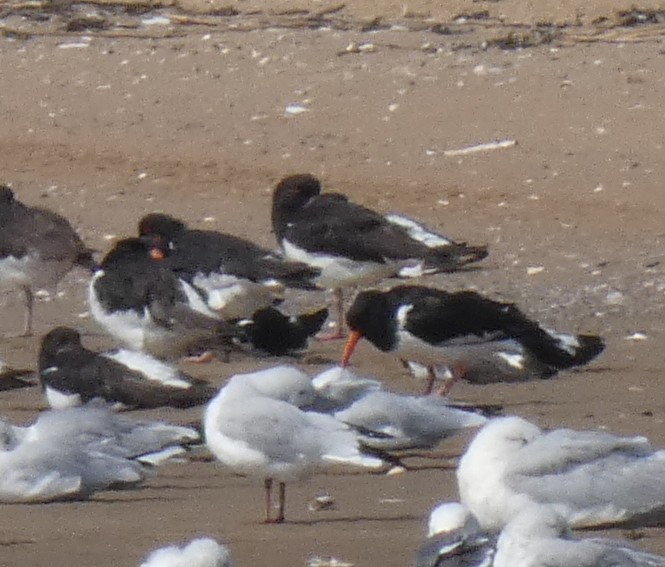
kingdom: Animalia
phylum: Chordata
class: Aves
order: Charadriiformes
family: Haematopodidae
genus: Haematopus
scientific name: Haematopus ostralegus
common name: Eurasian oystercatcher
